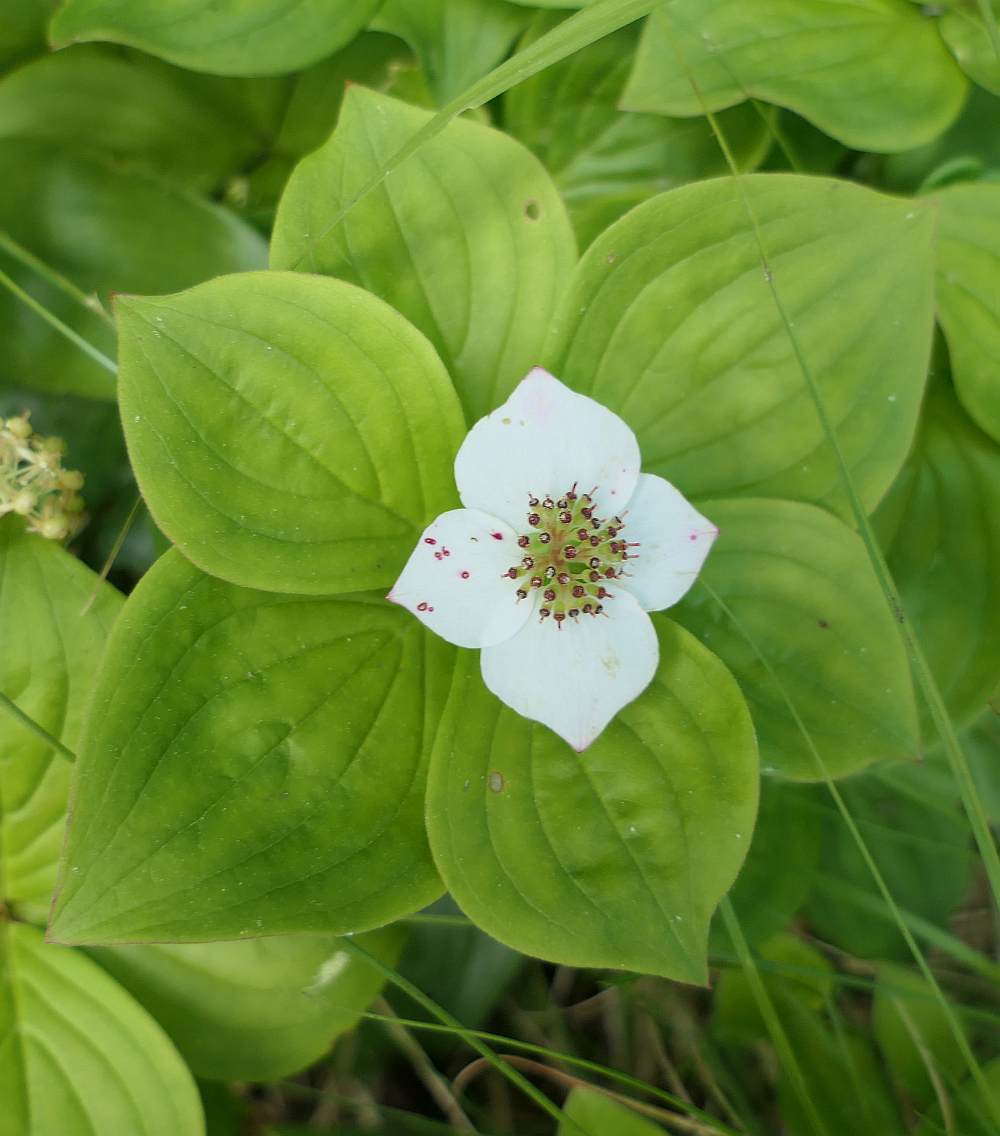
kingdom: Plantae
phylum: Tracheophyta
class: Magnoliopsida
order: Cornales
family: Cornaceae
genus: Cornus
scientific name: Cornus canadensis
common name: Creeping dogwood
